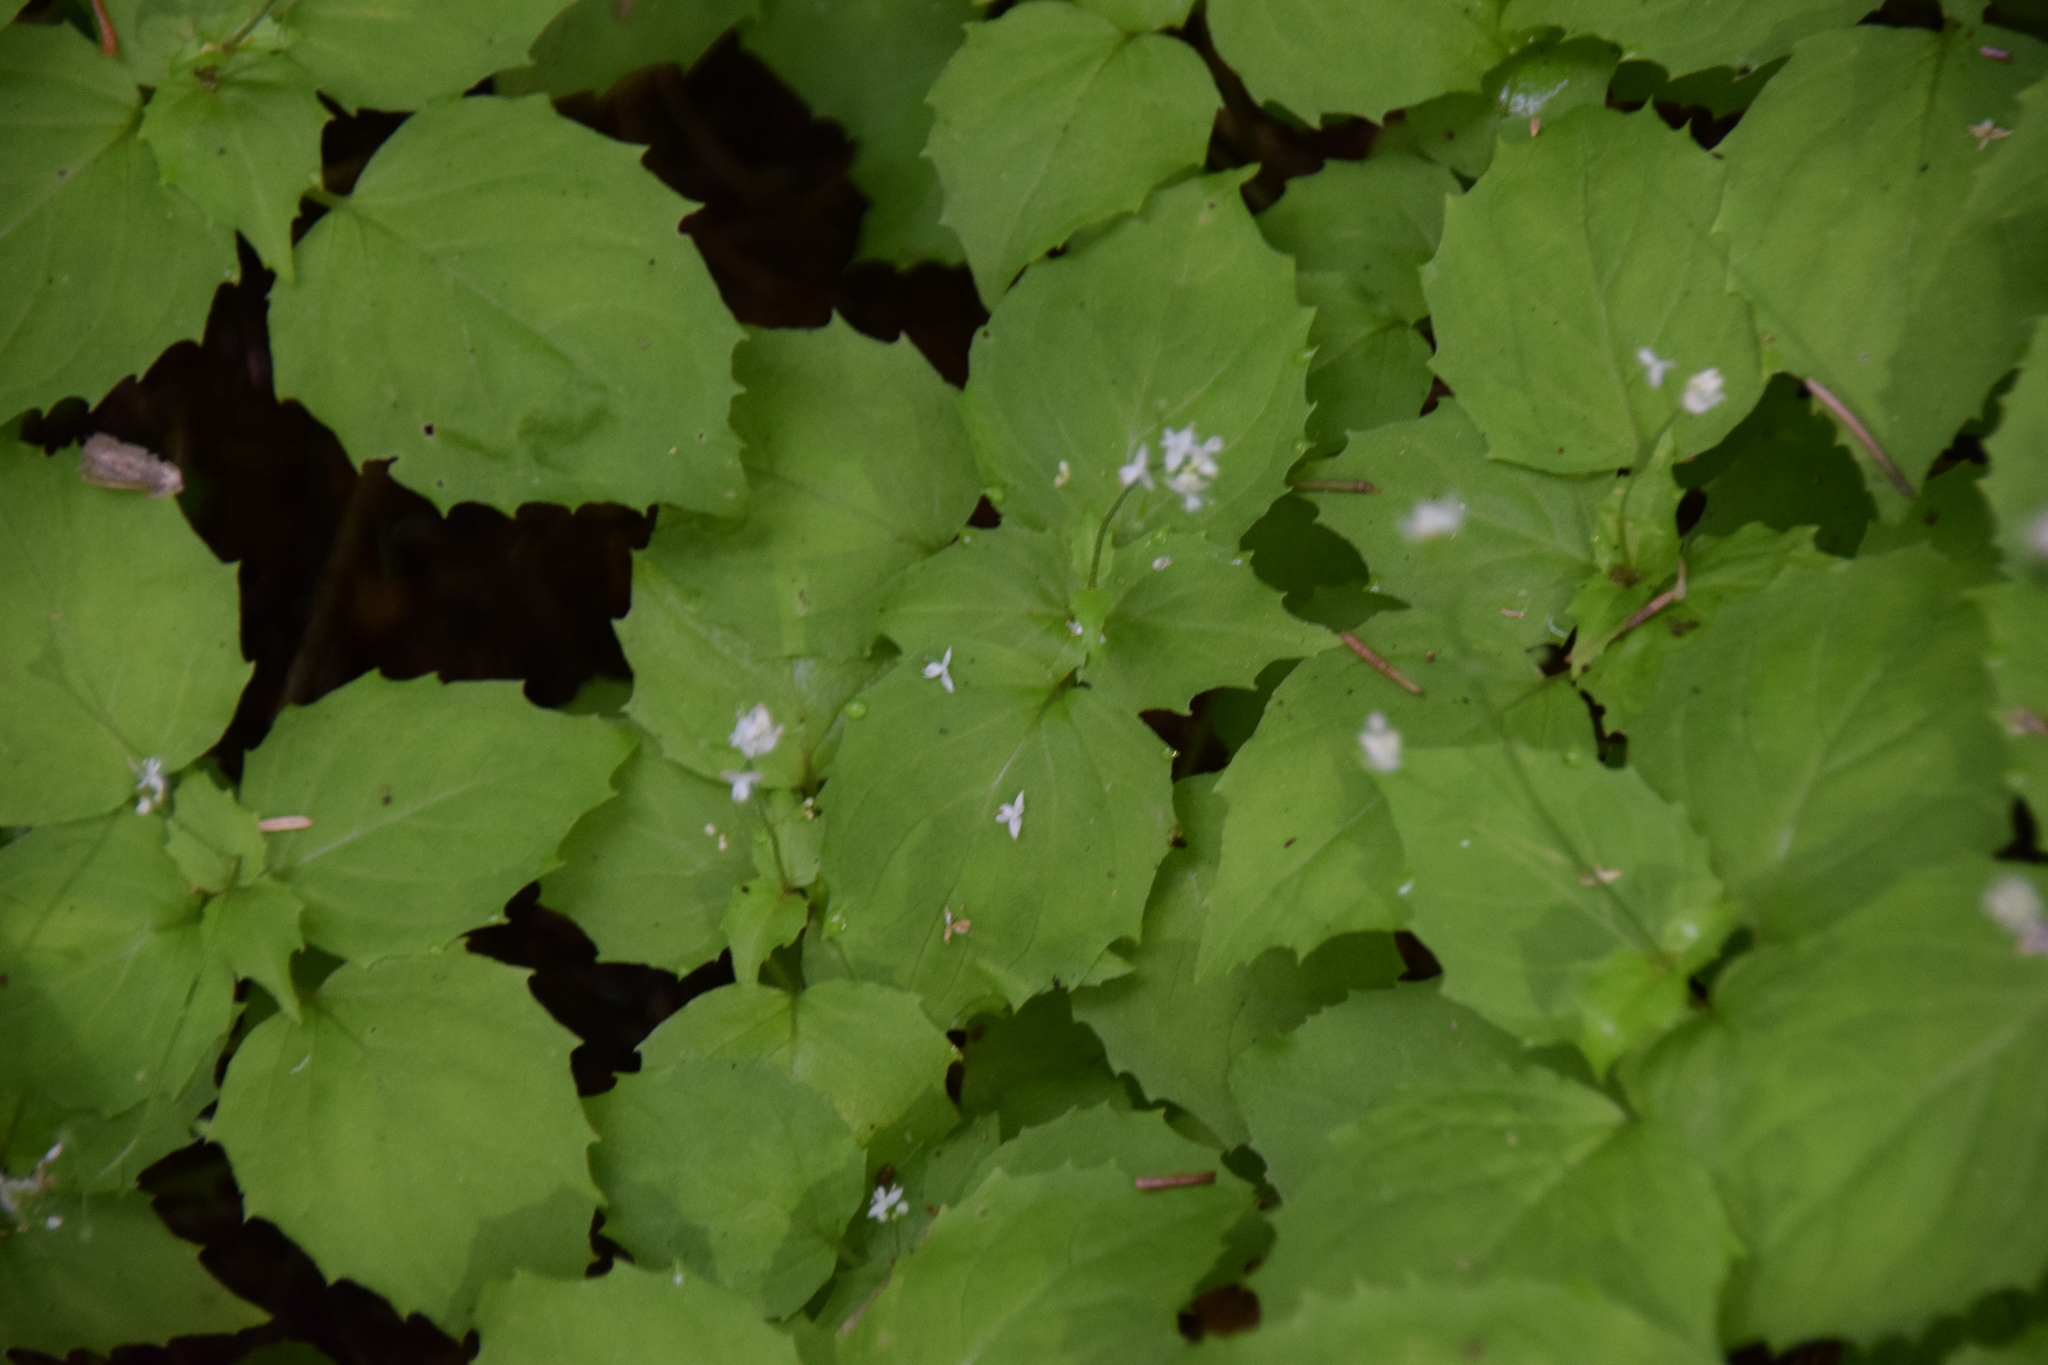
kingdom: Plantae
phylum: Tracheophyta
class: Magnoliopsida
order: Myrtales
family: Onagraceae
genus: Circaea
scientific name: Circaea alpina
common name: Alpine enchanter's-nightshade
